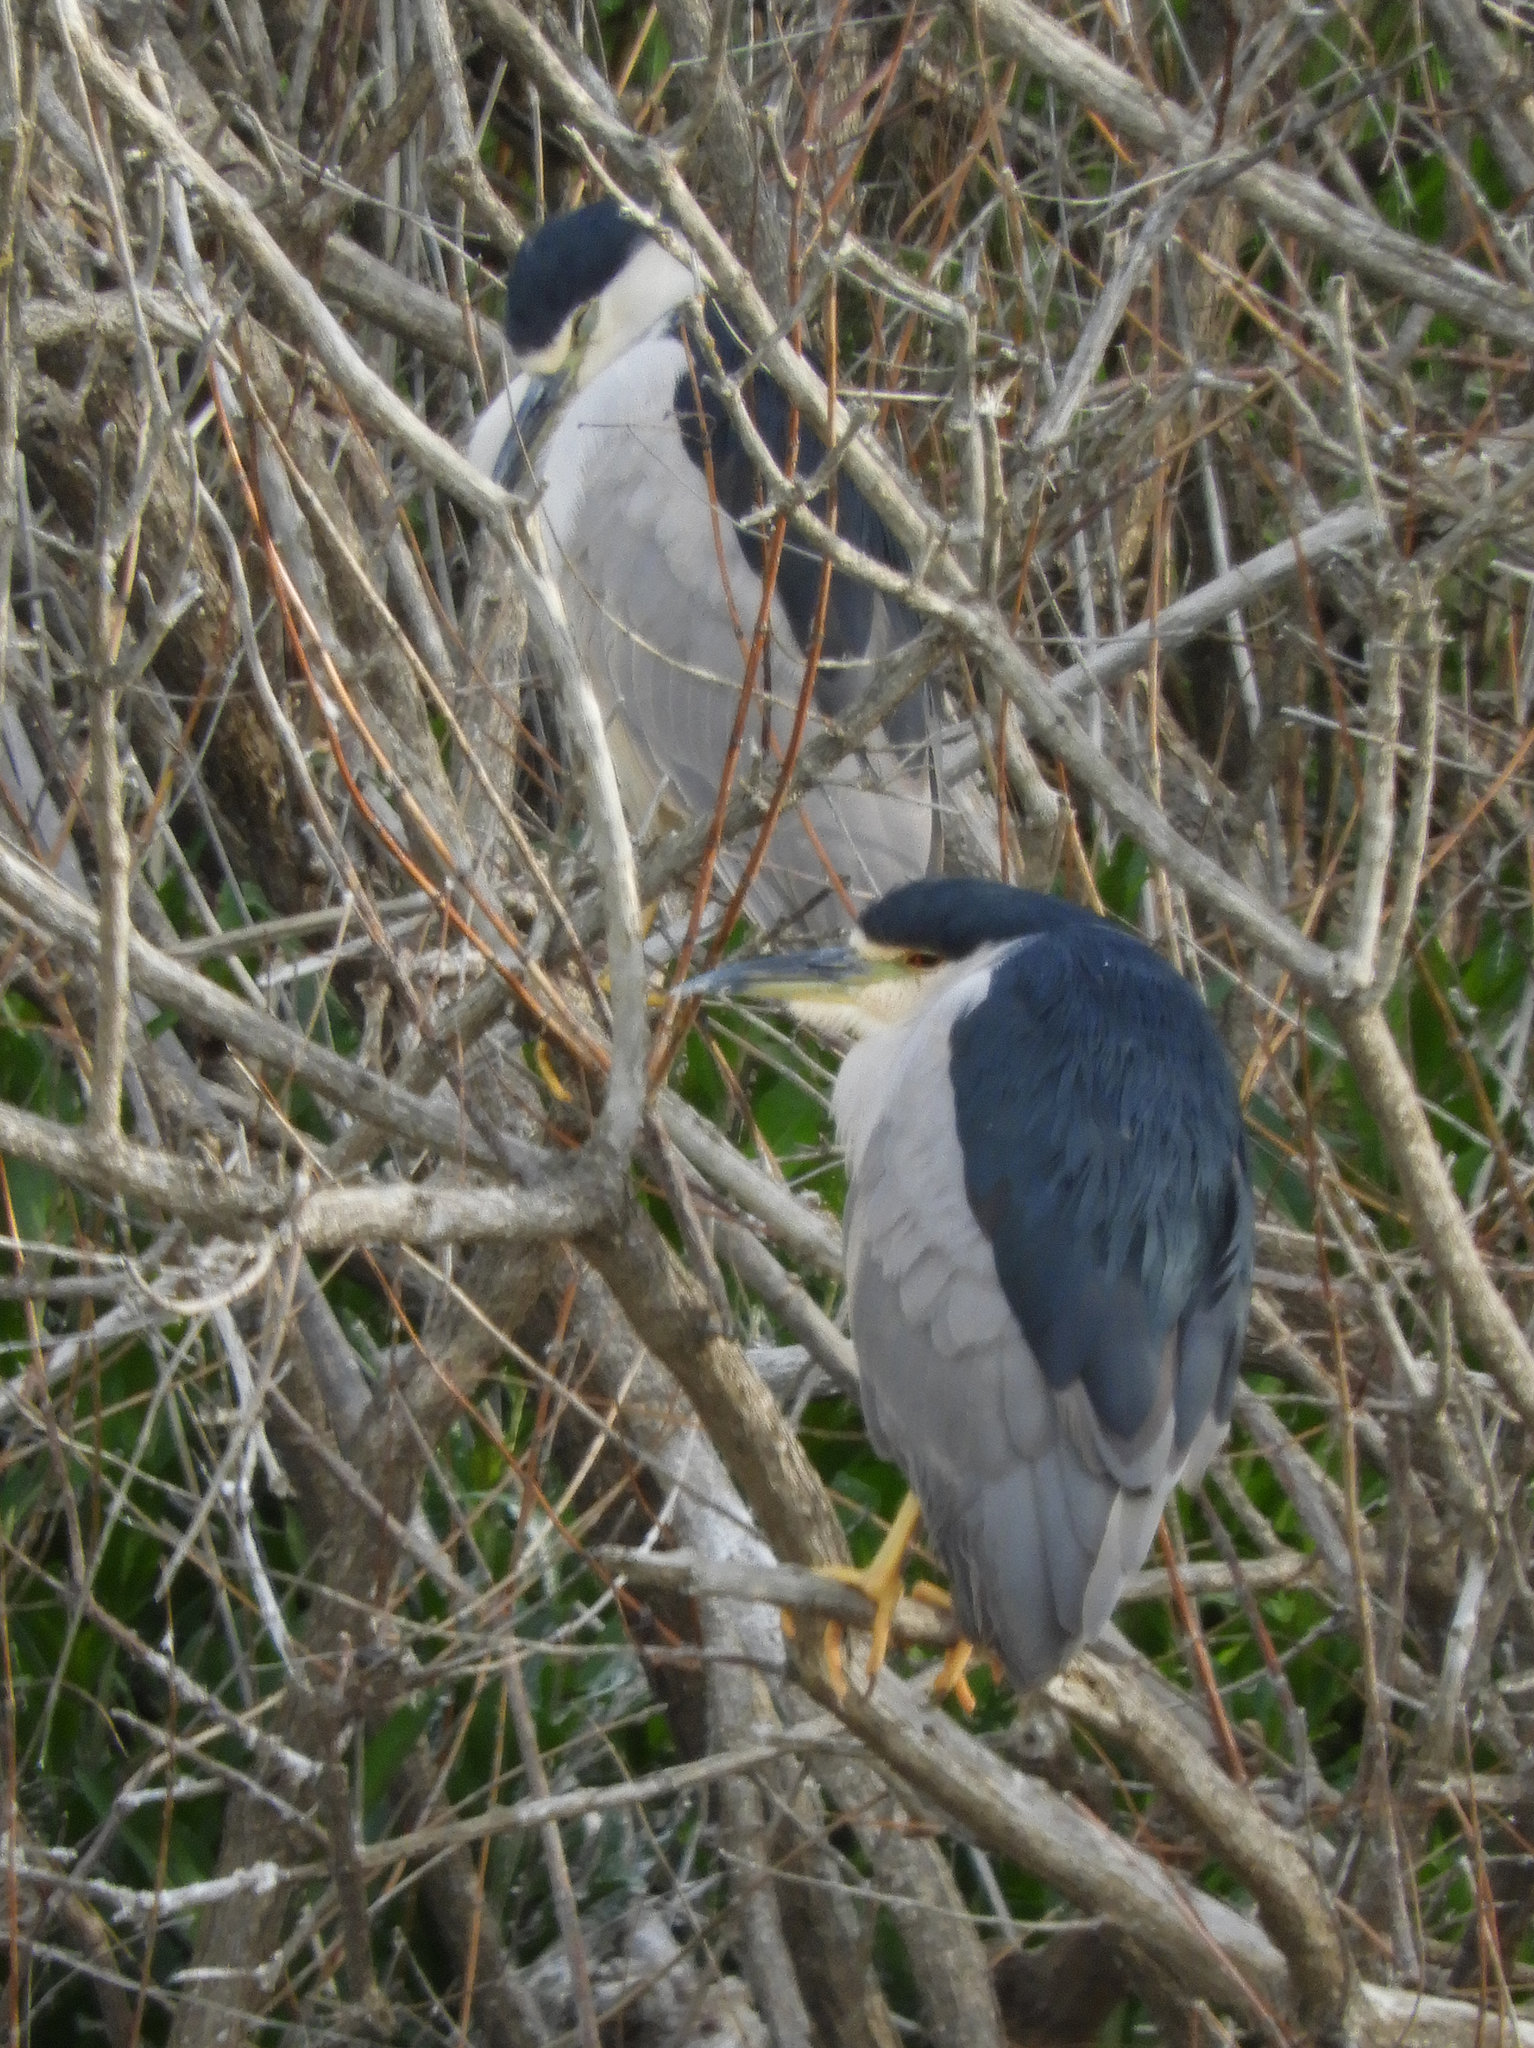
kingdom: Animalia
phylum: Chordata
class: Aves
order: Pelecaniformes
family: Ardeidae
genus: Nycticorax
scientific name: Nycticorax nycticorax
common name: Black-crowned night heron
